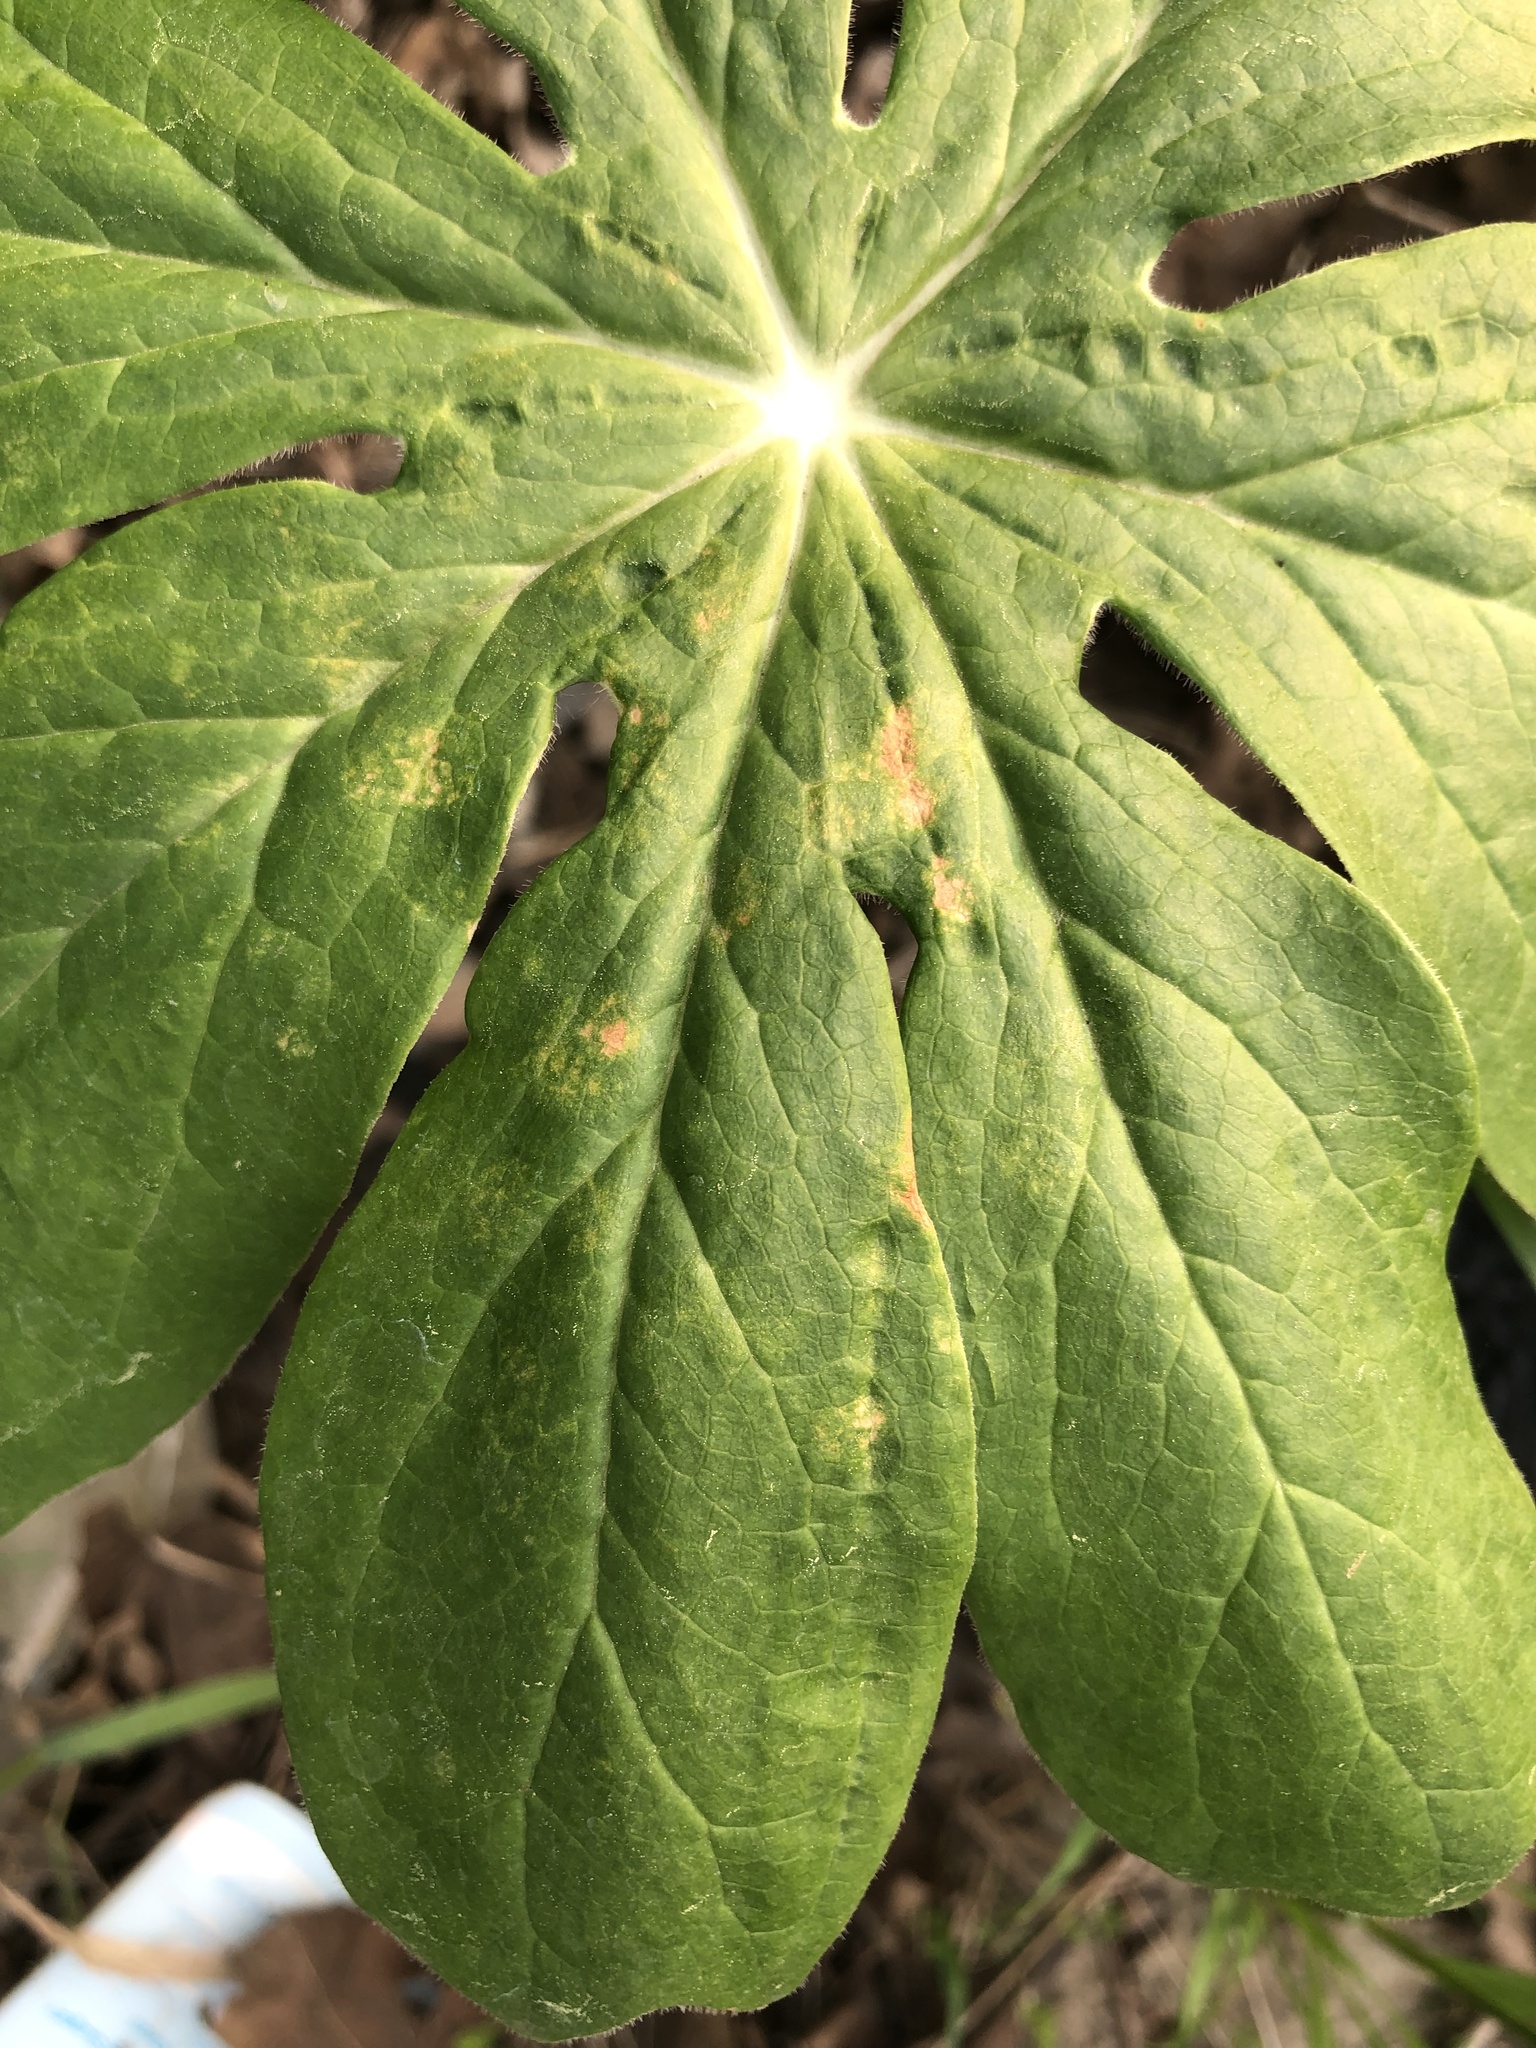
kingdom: Fungi
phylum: Basidiomycota
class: Pucciniomycetes
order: Pucciniales
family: Pucciniaceae
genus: Puccinia
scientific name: Puccinia podophylli
